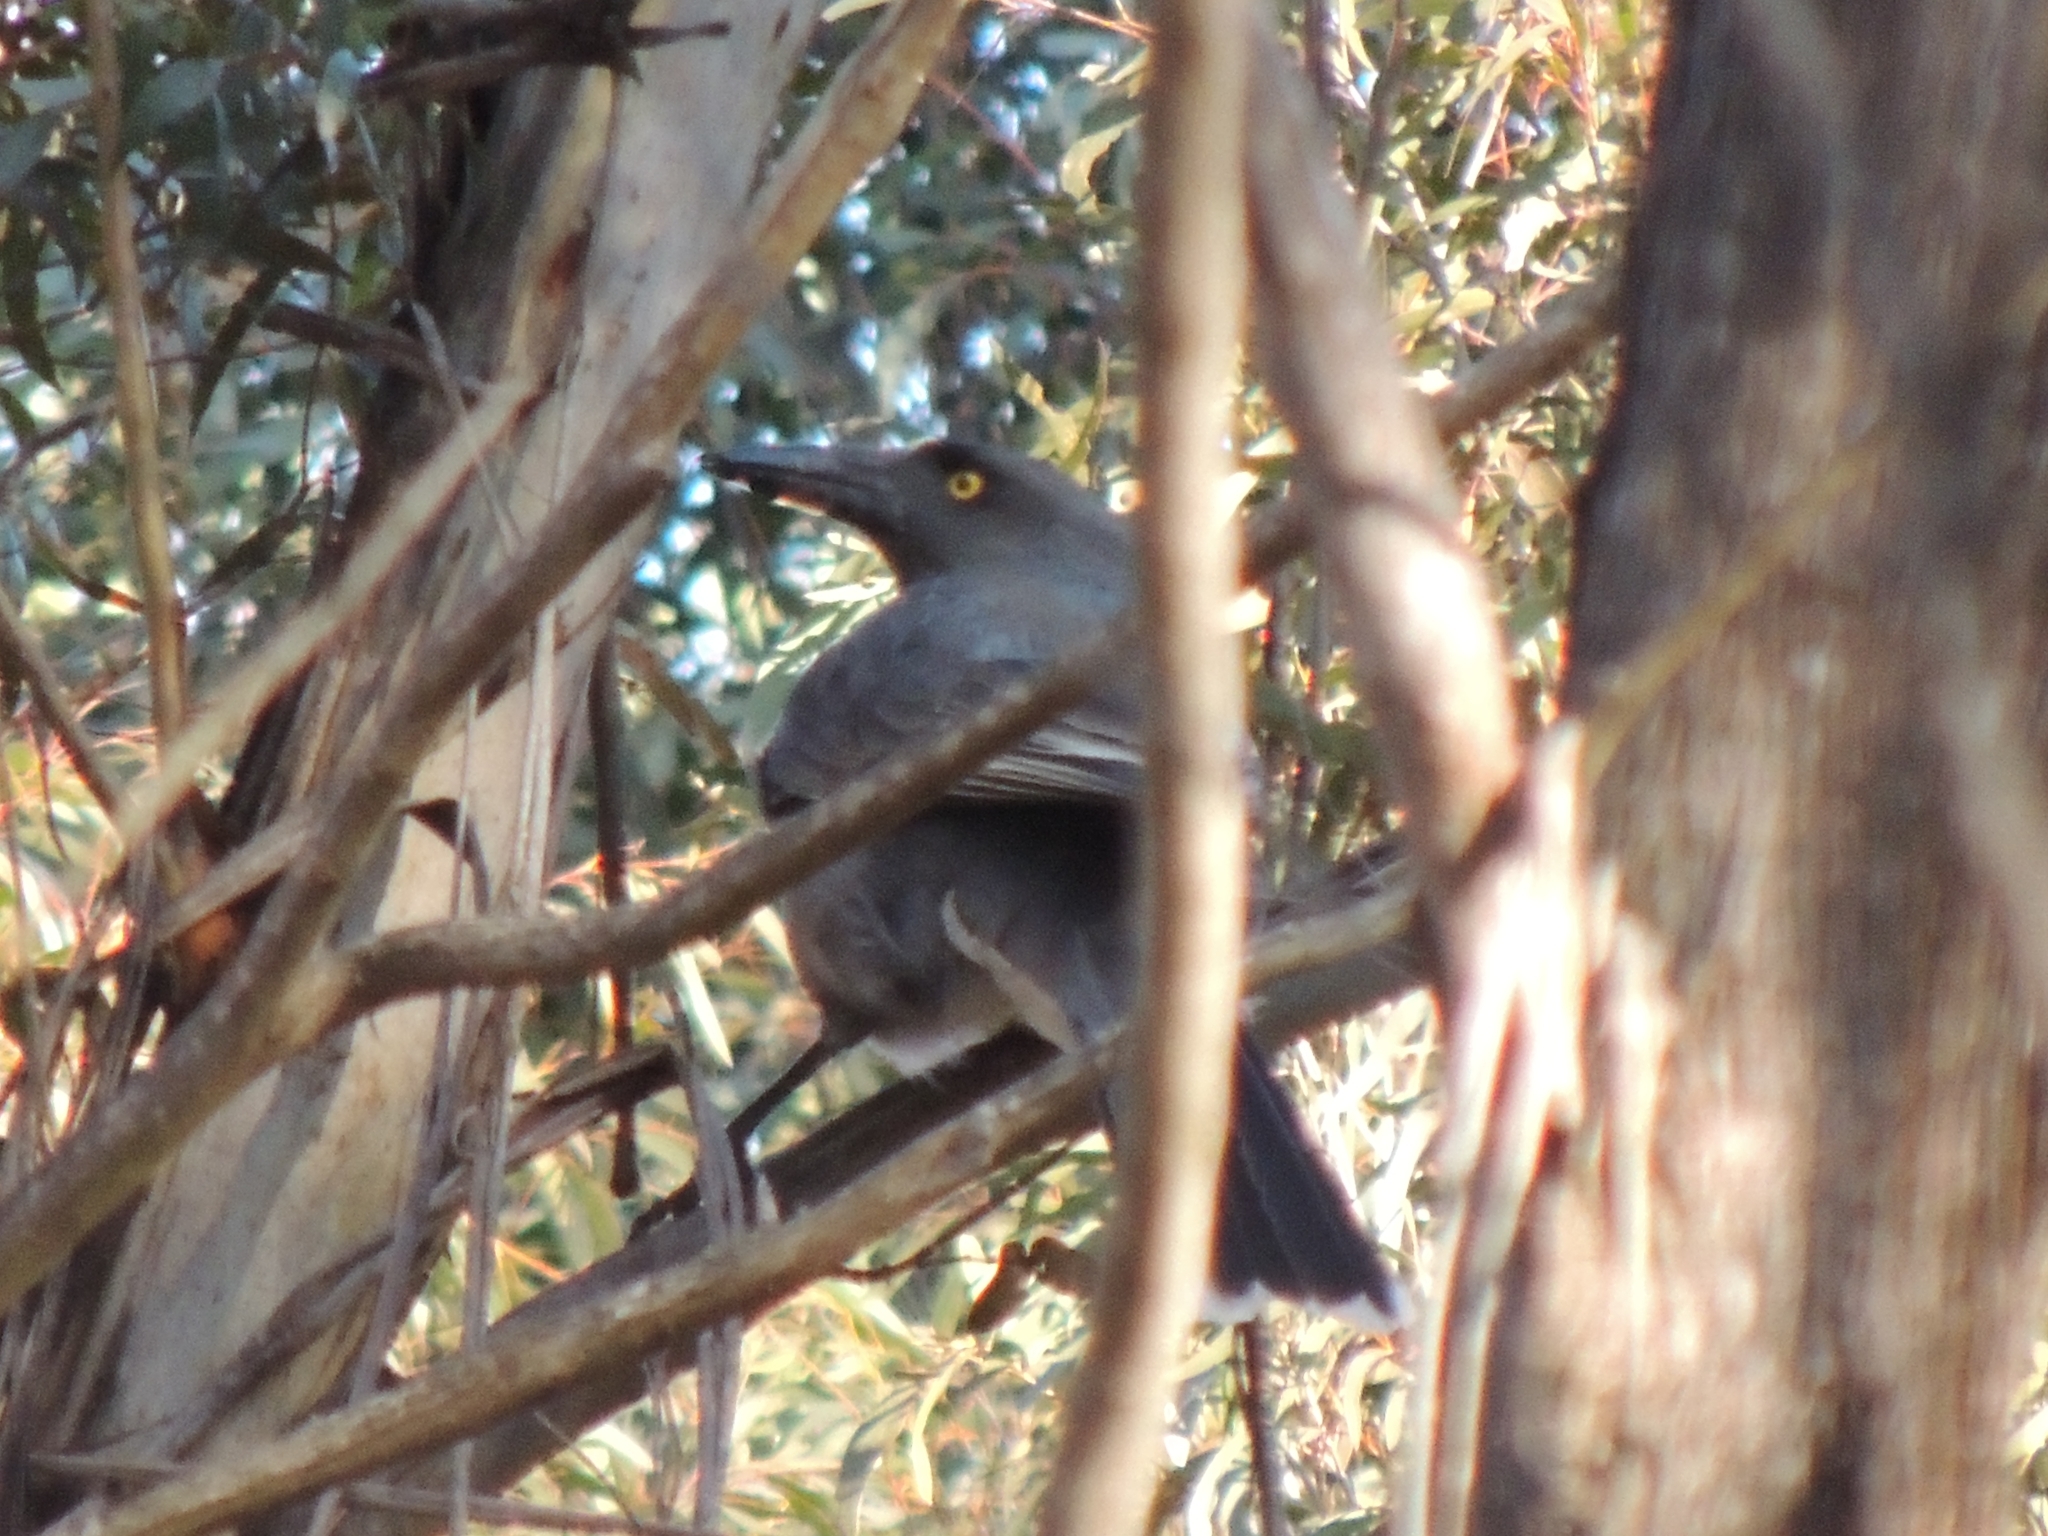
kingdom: Animalia
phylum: Chordata
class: Aves
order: Passeriformes
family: Cracticidae
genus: Strepera
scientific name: Strepera versicolor
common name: Grey currawong
